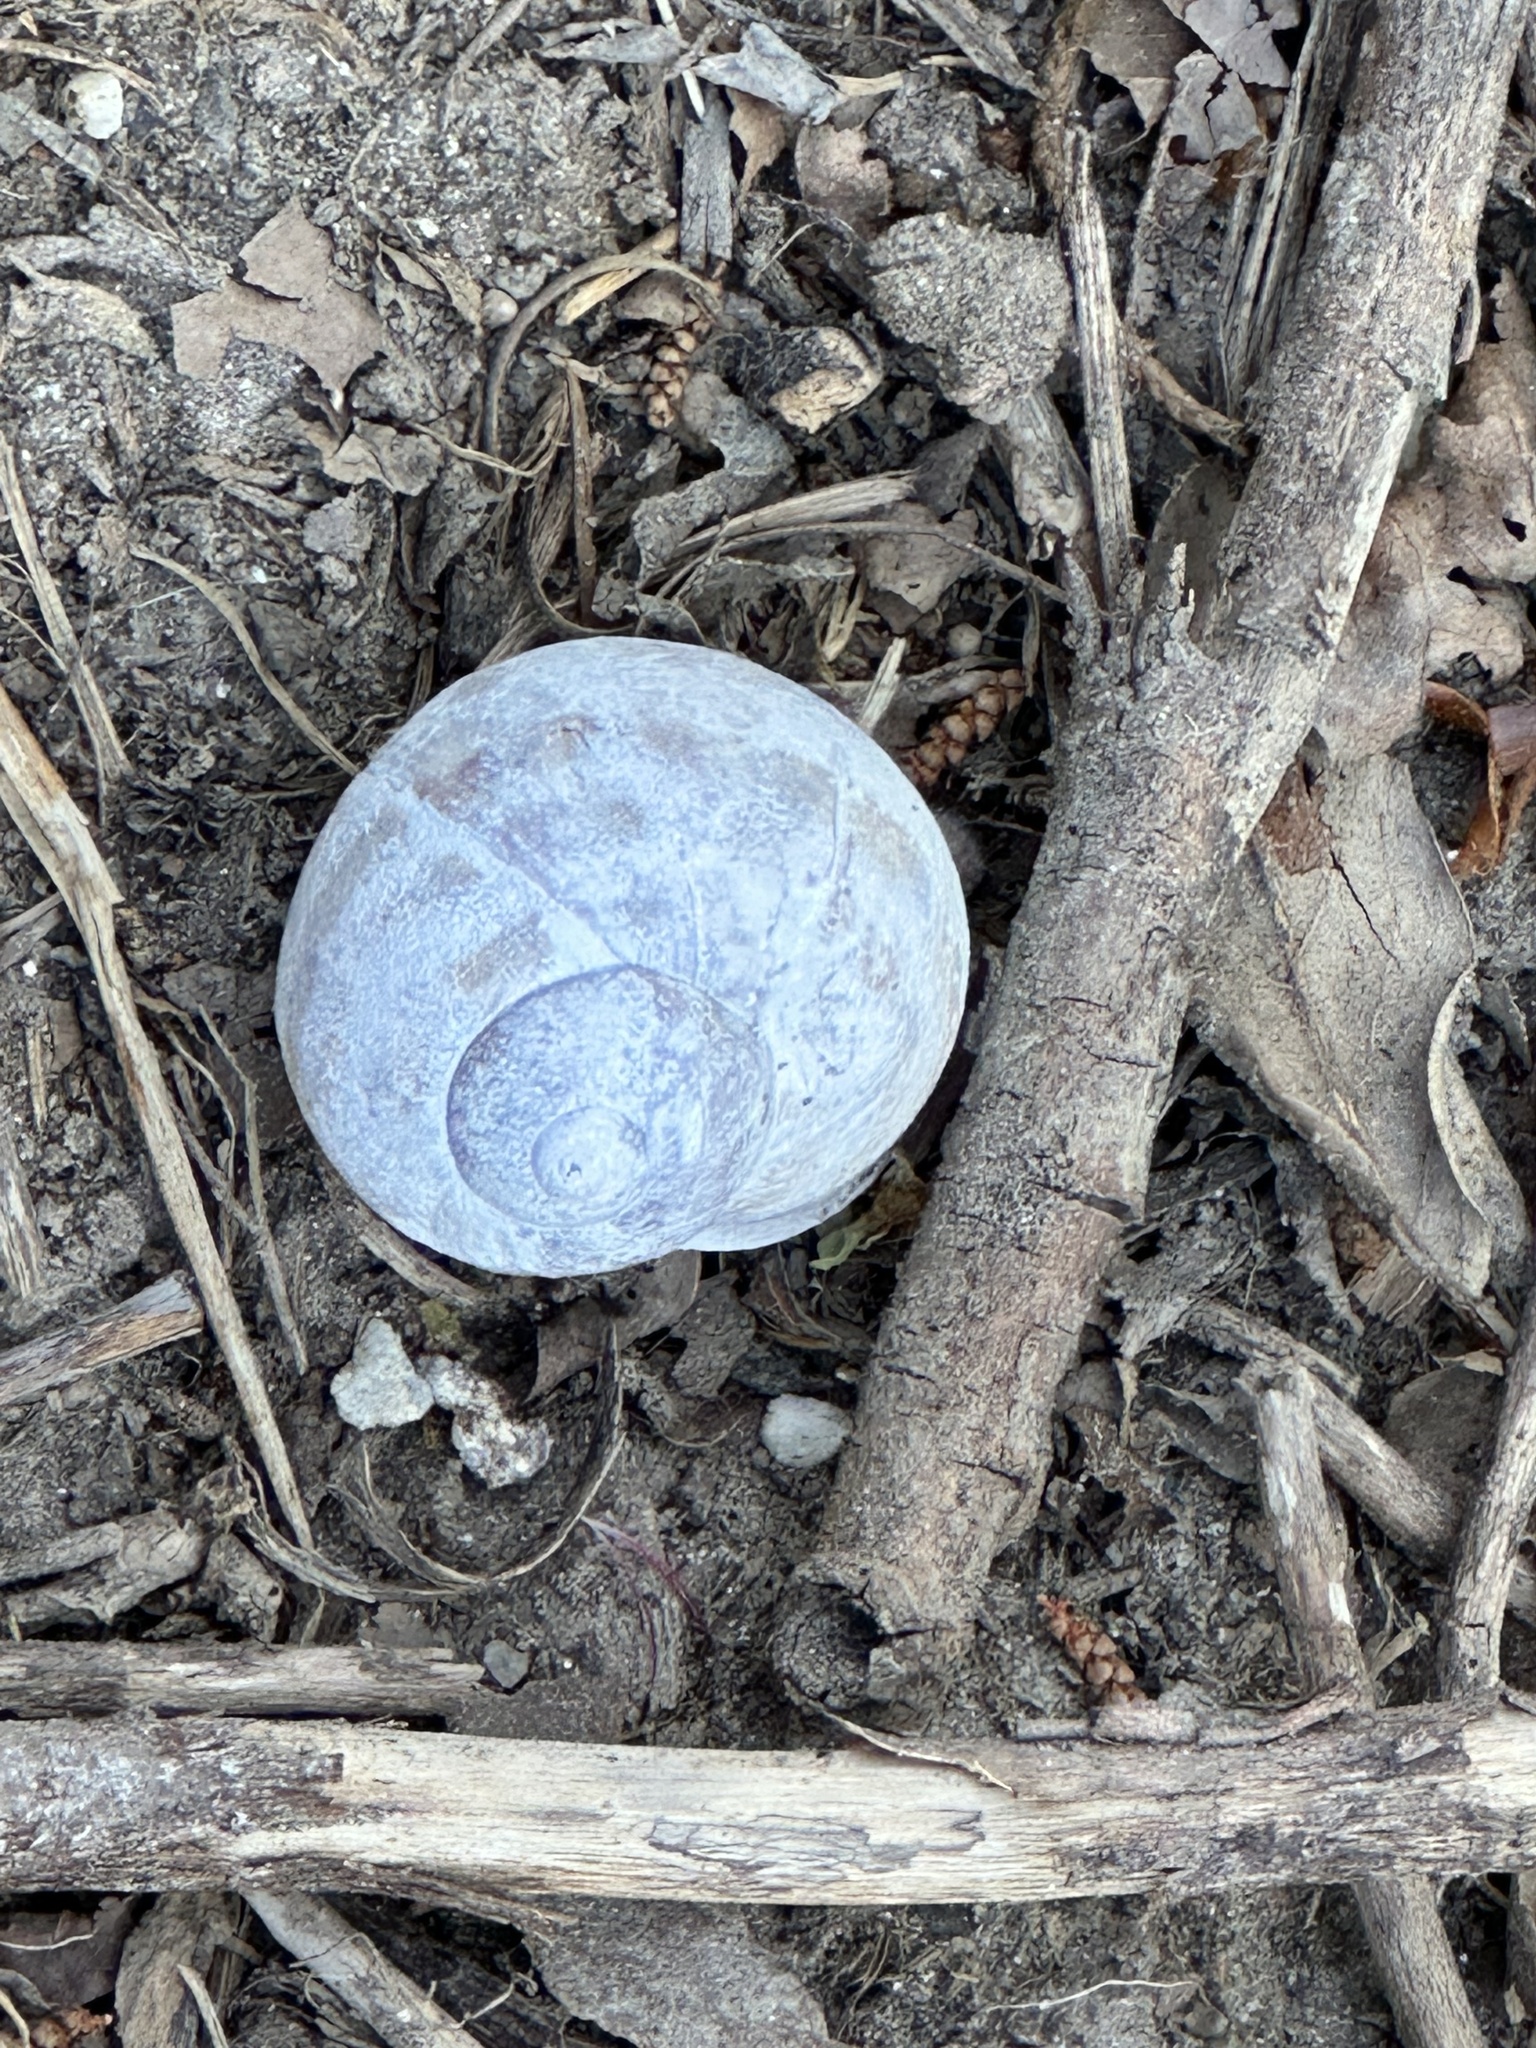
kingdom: Animalia
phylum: Mollusca
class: Gastropoda
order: Stylommatophora
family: Helicidae
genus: Cornu
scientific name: Cornu aspersum
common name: Brown garden snail
